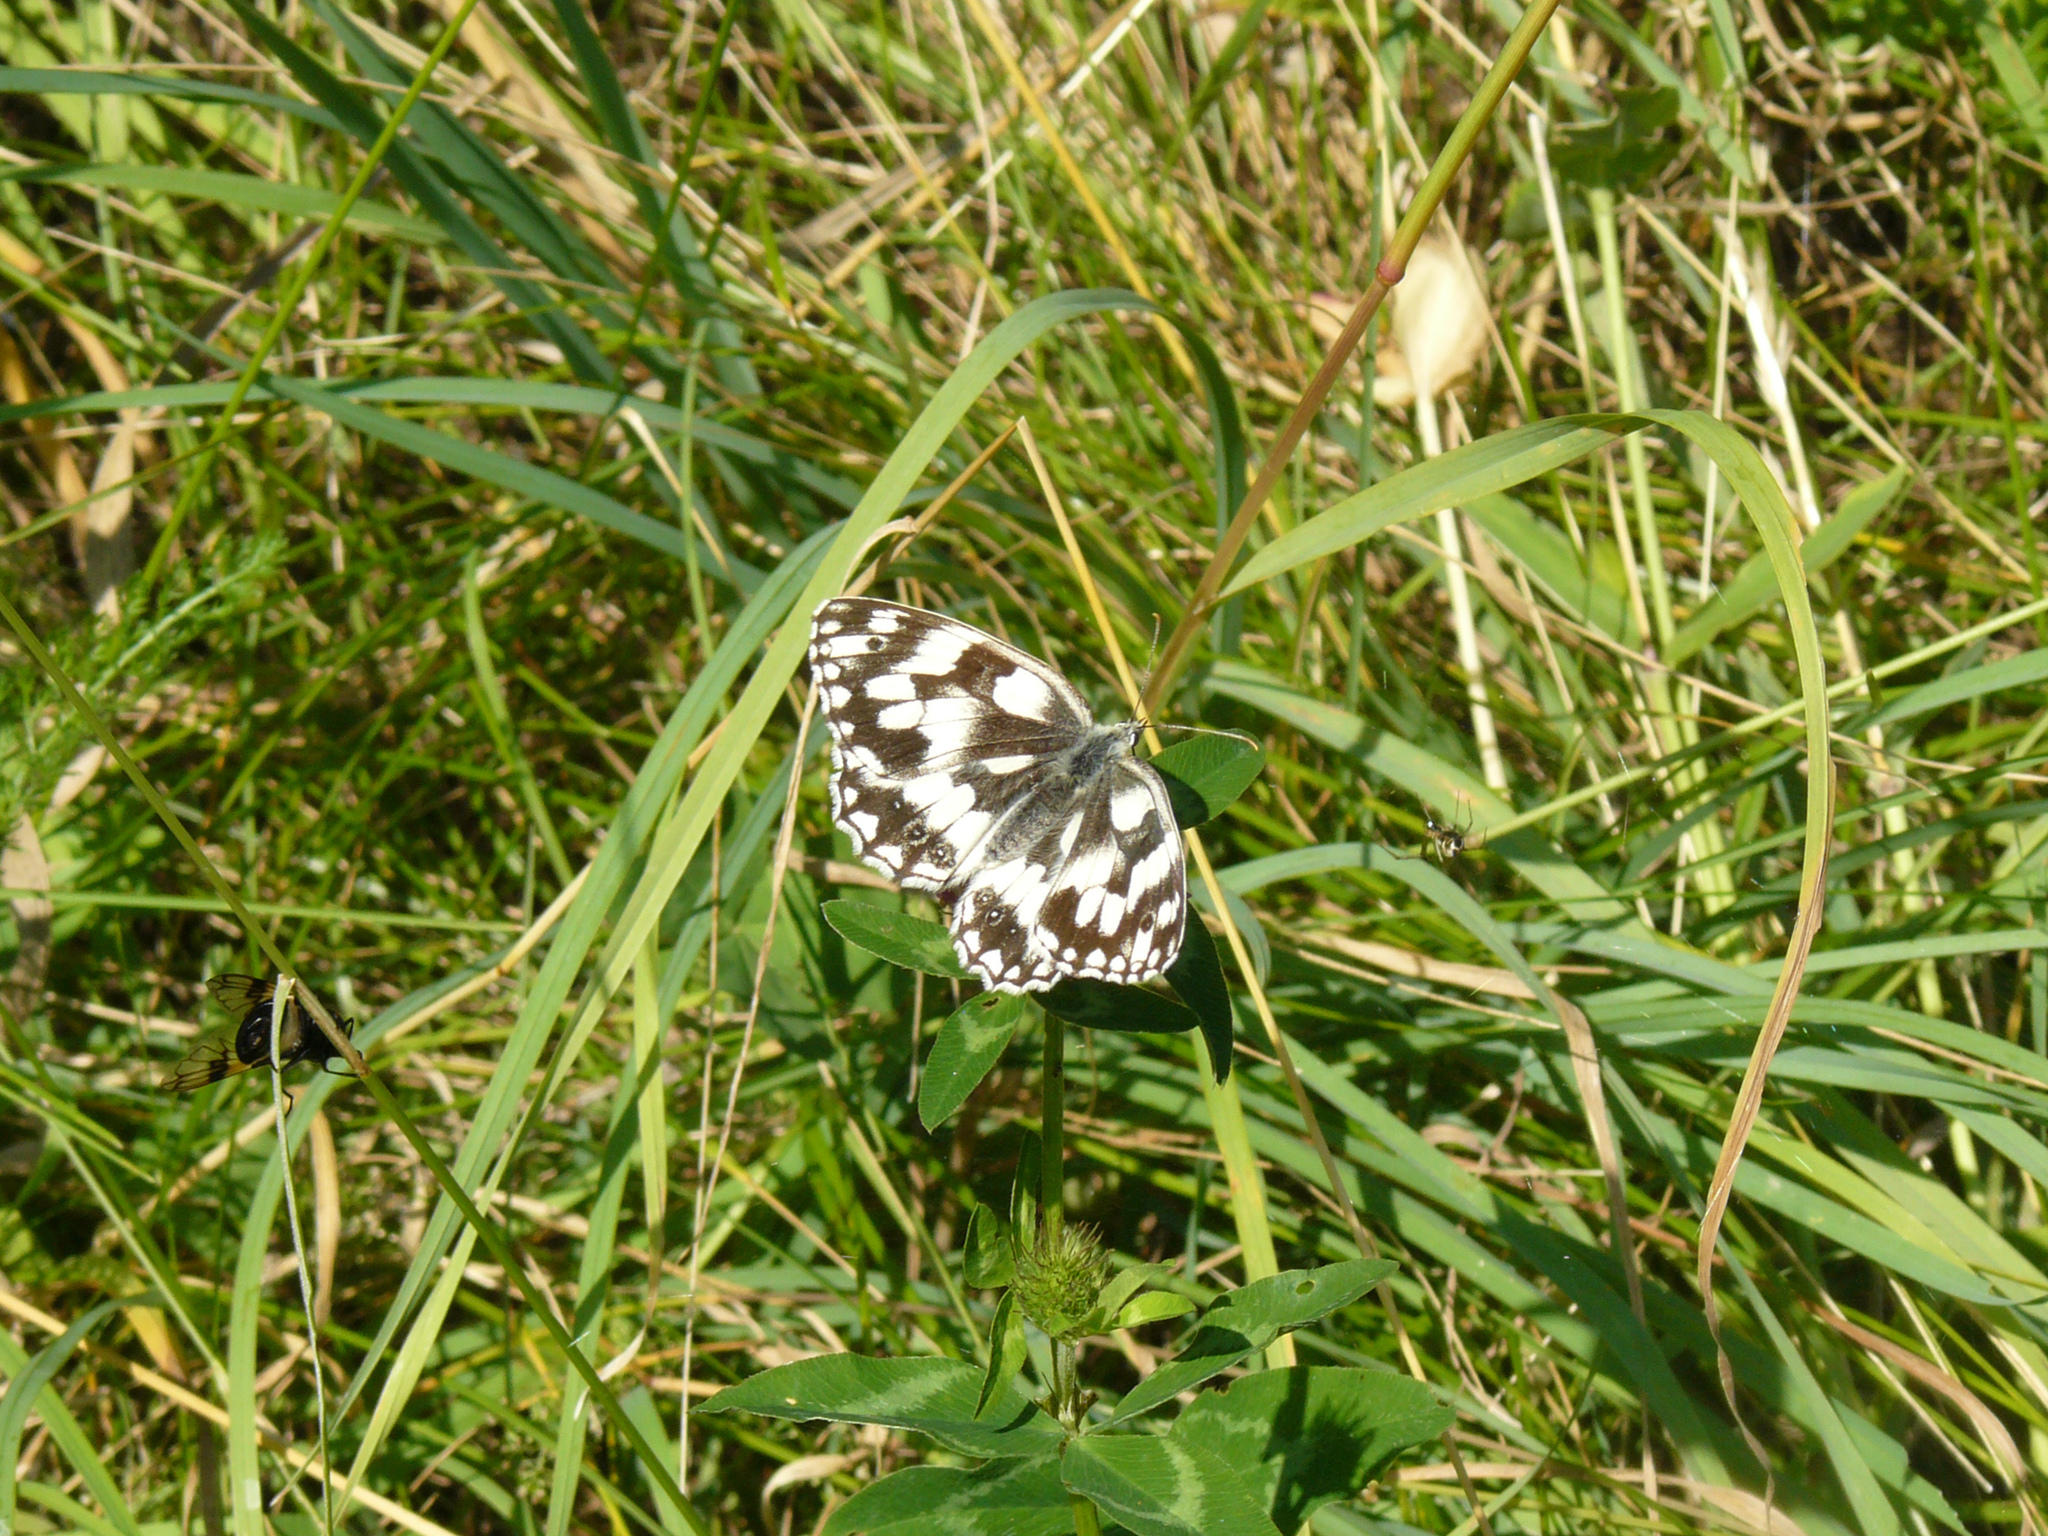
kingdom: Animalia
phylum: Arthropoda
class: Insecta
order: Lepidoptera
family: Nymphalidae
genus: Melanargia
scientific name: Melanargia galathea
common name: Marbled white
